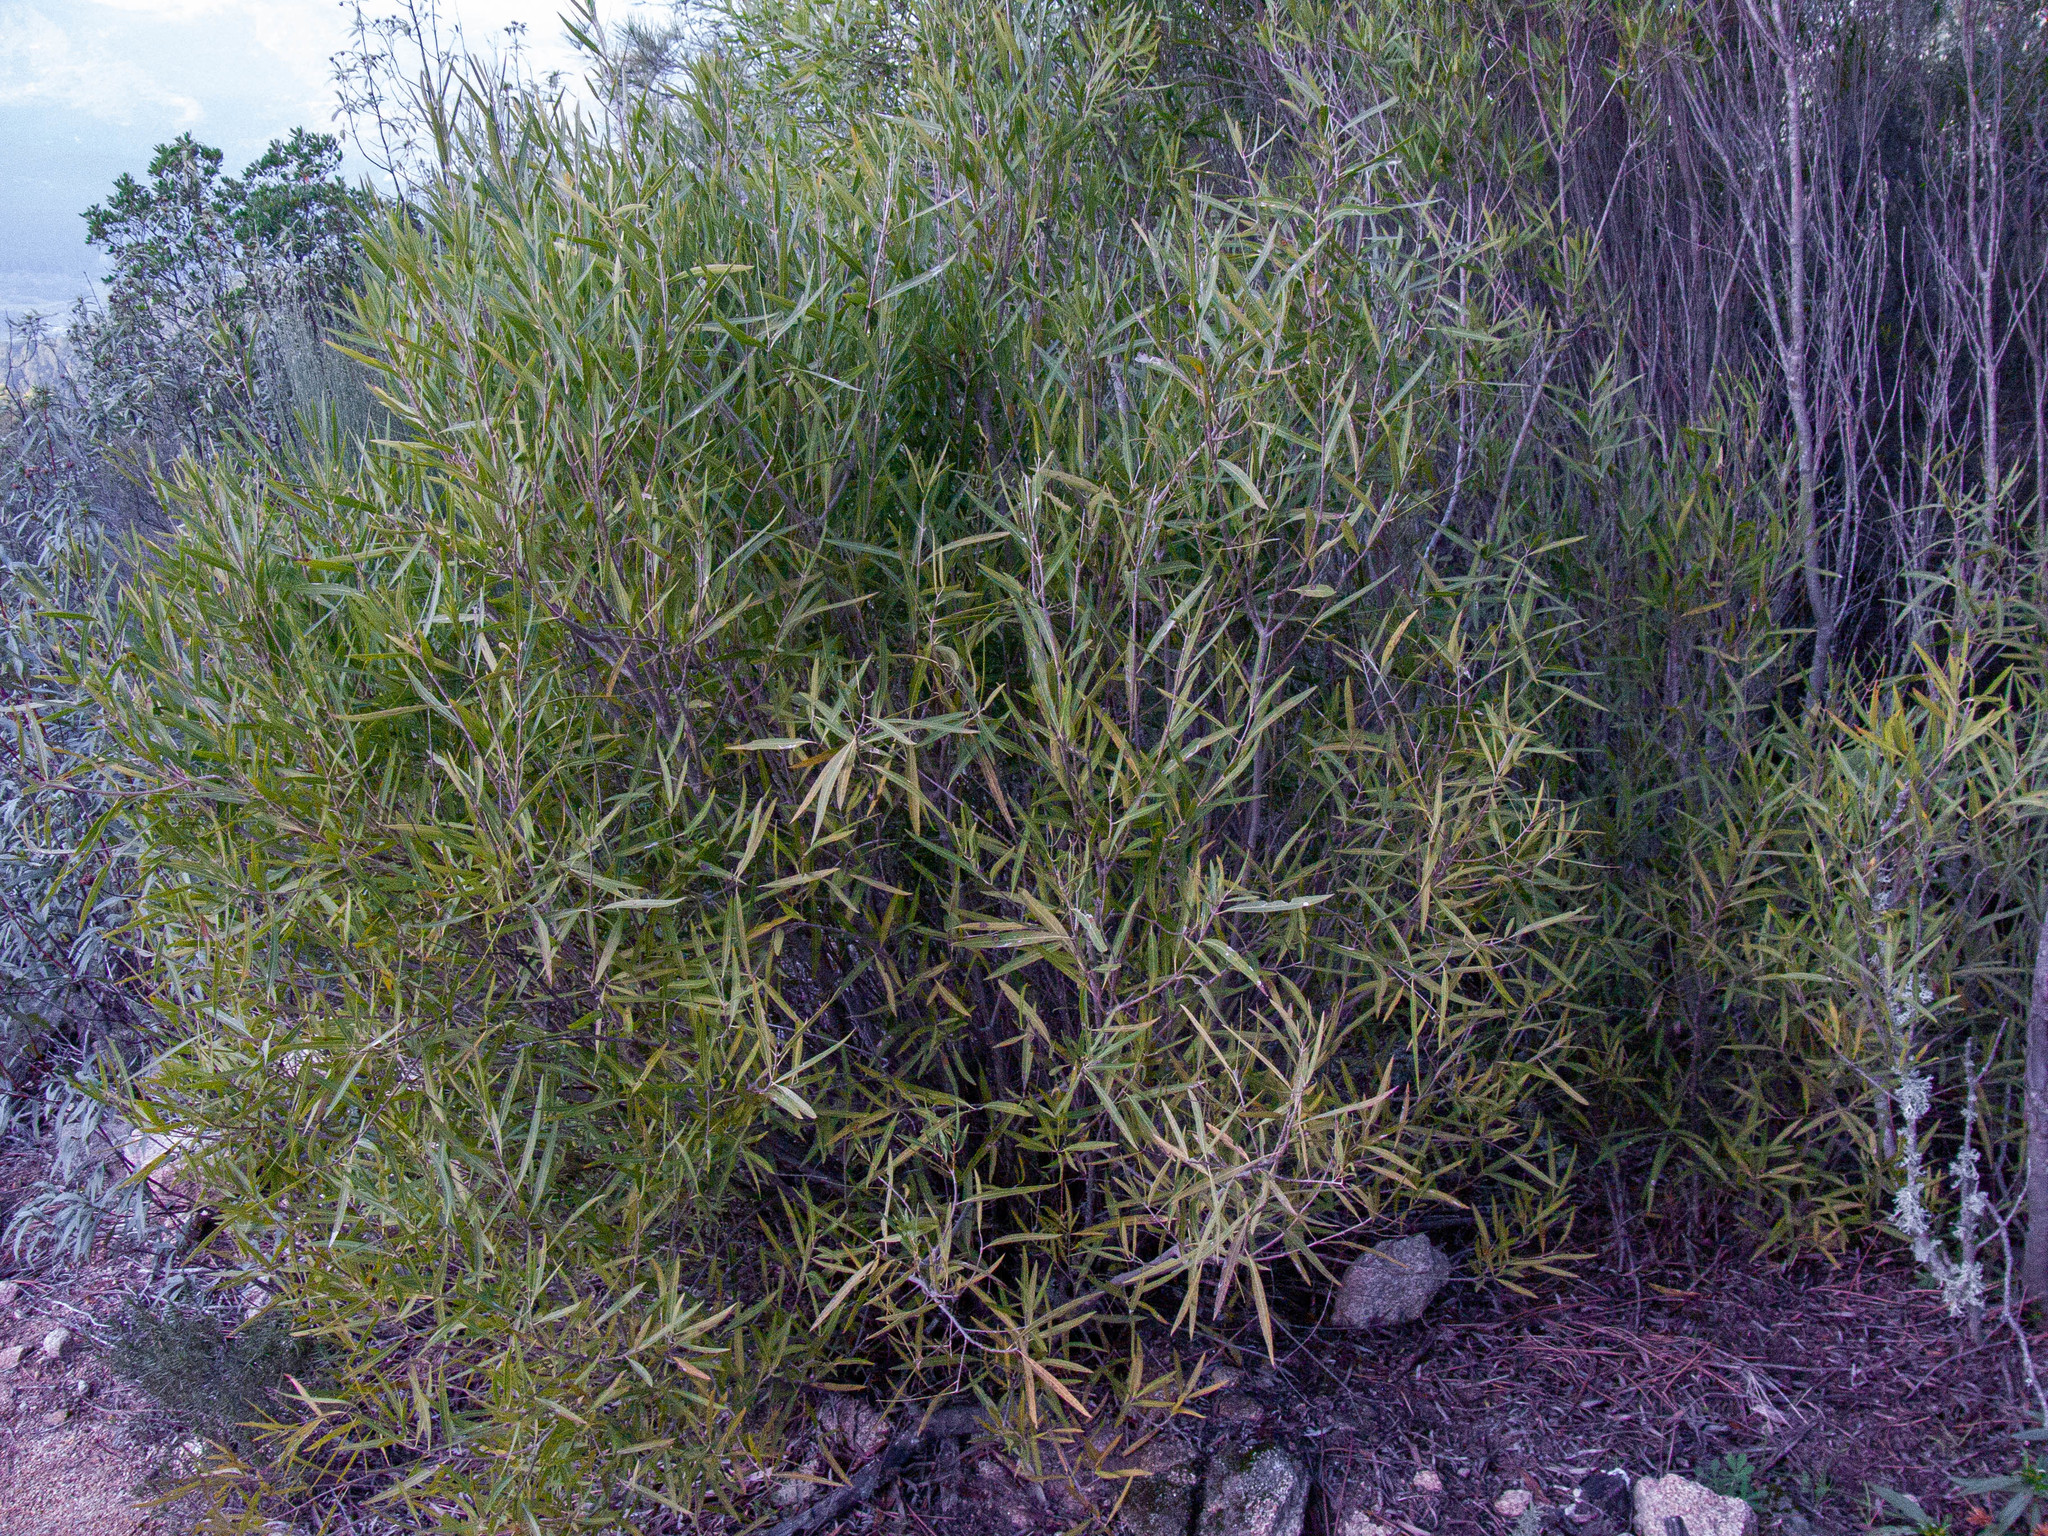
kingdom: Plantae
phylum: Tracheophyta
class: Magnoliopsida
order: Lamiales
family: Oleaceae
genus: Phillyrea
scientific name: Phillyrea angustifolia
